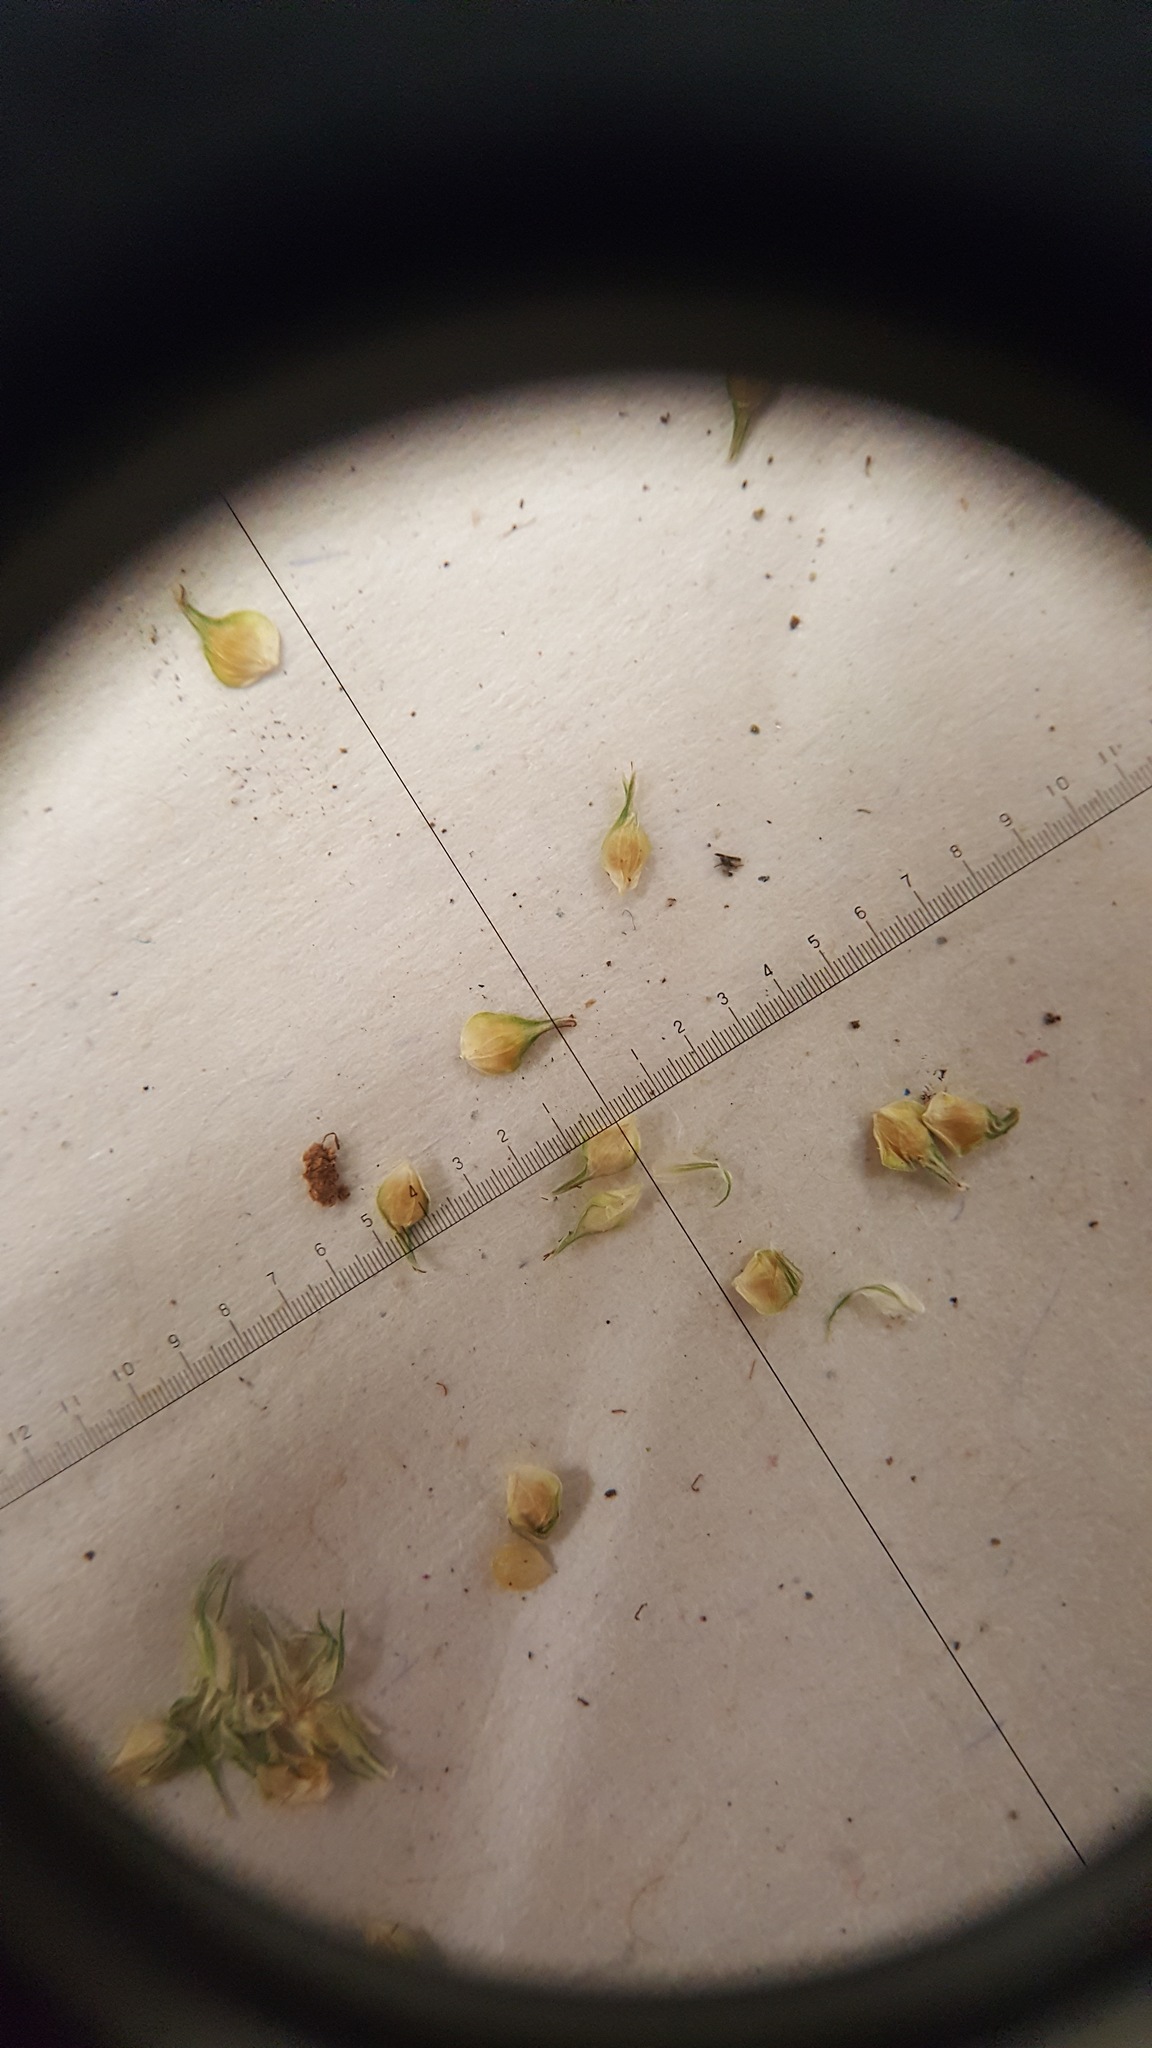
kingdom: Plantae
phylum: Tracheophyta
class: Liliopsida
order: Poales
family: Cyperaceae
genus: Carex
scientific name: Carex vulpinoidea
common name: American fox-sedge
